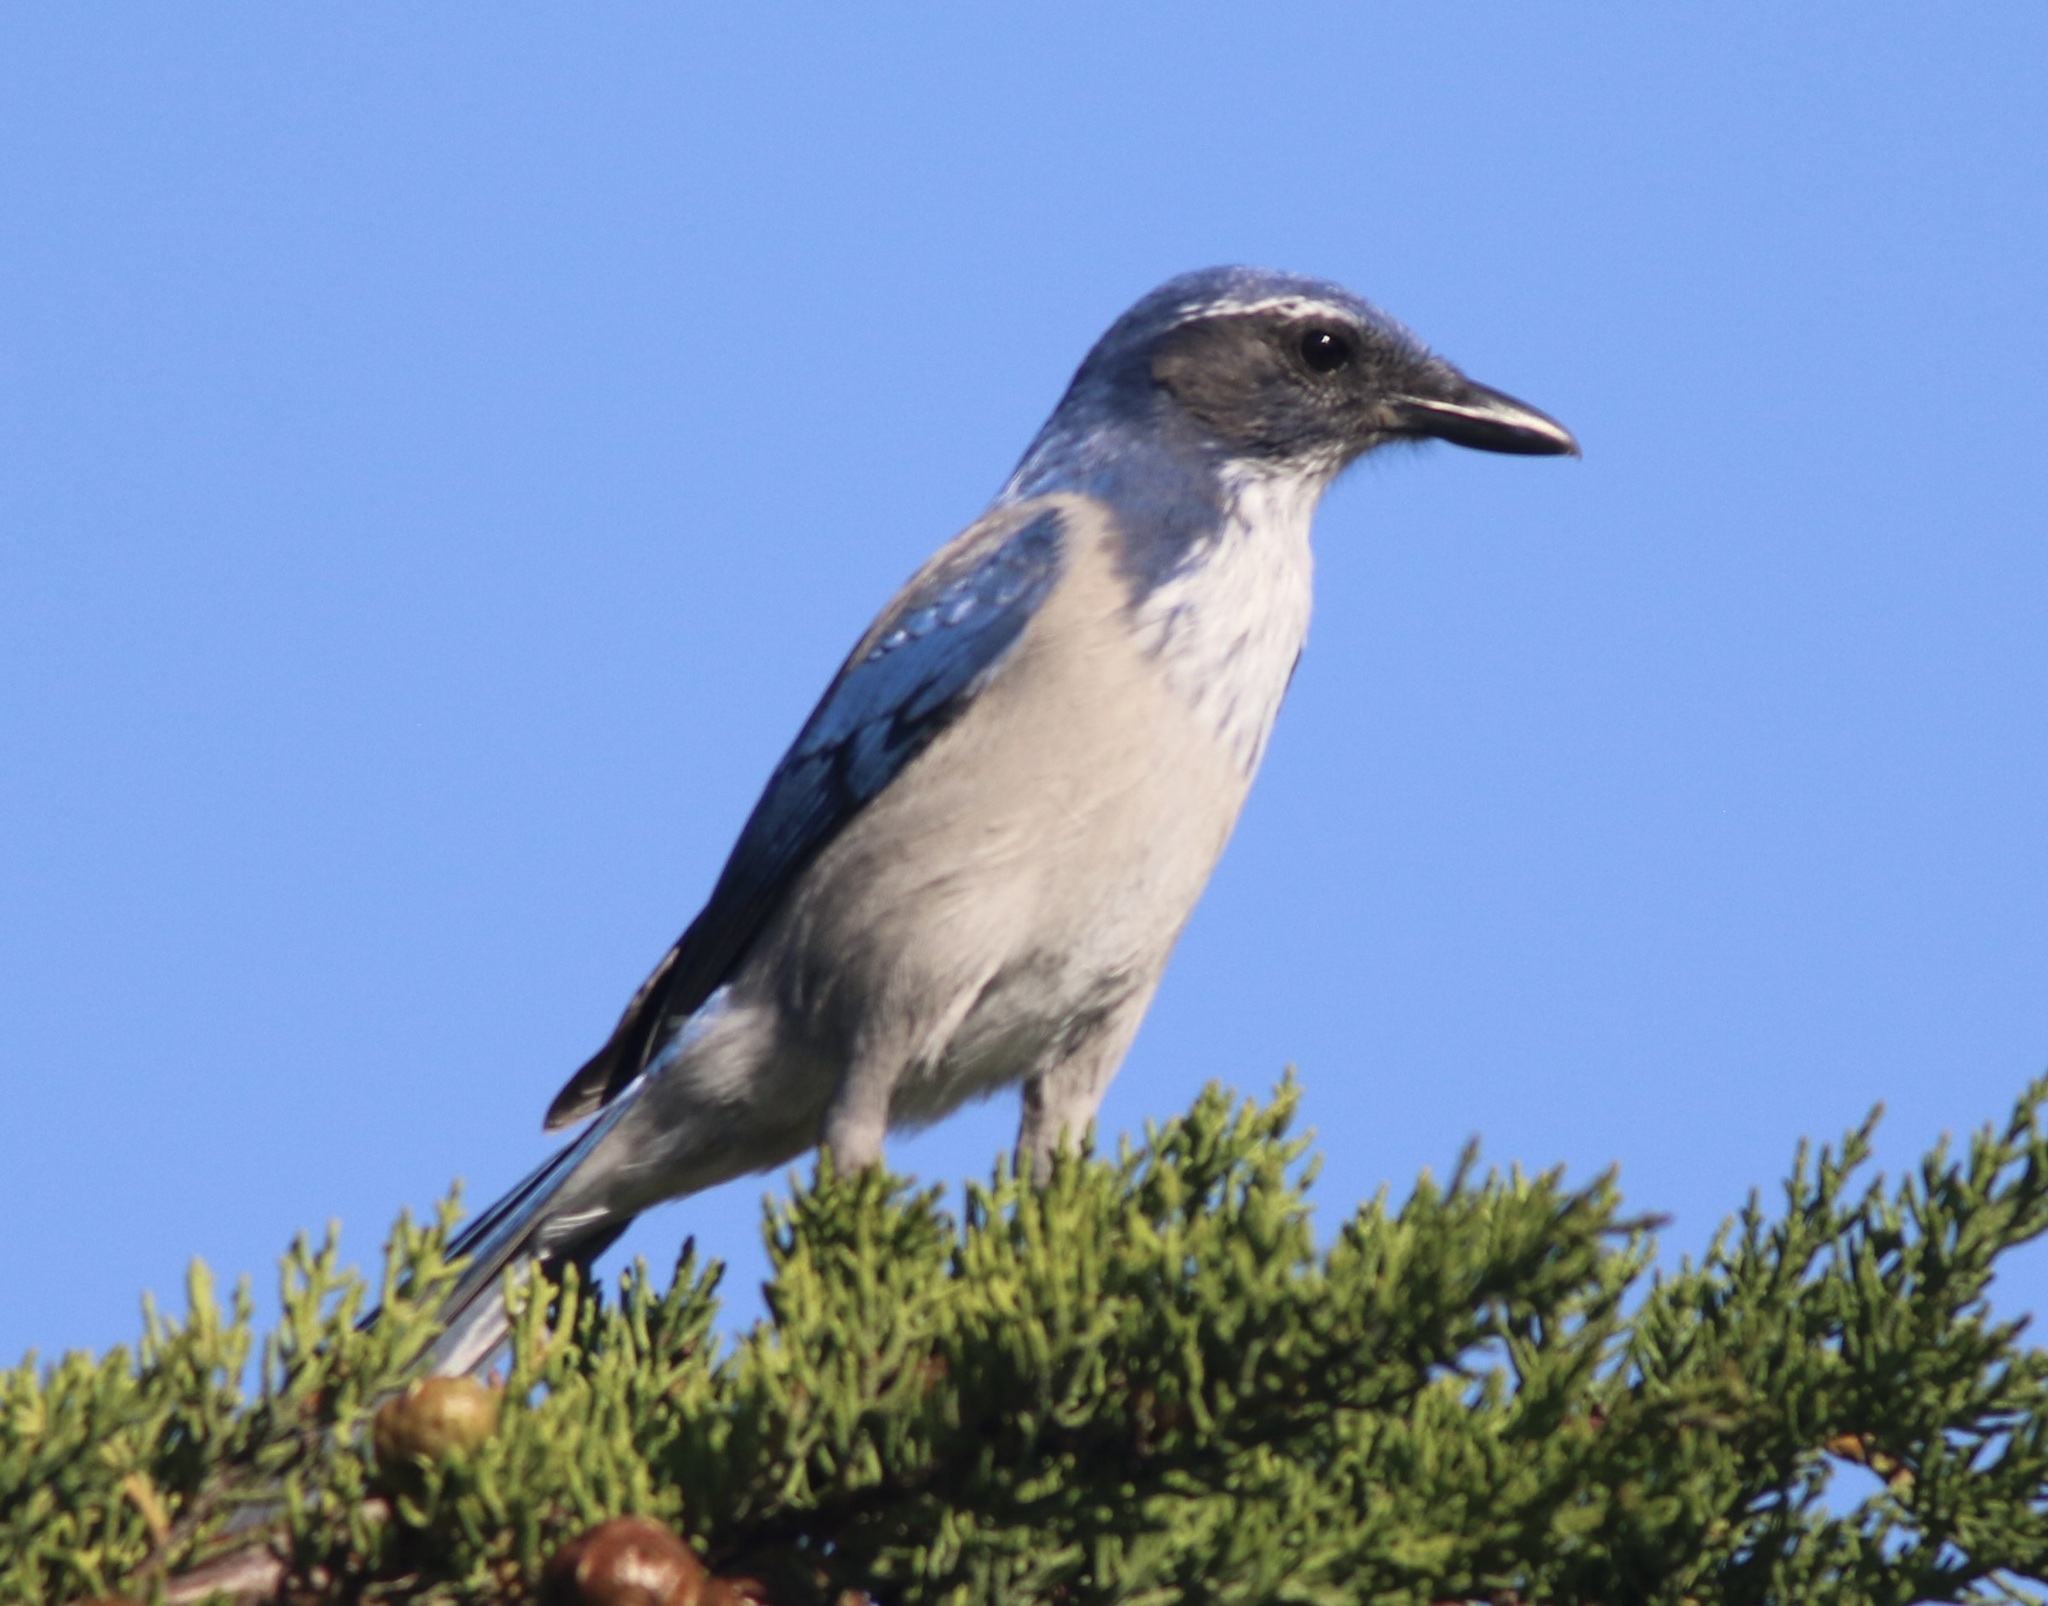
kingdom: Animalia
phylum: Chordata
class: Aves
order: Passeriformes
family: Corvidae
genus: Aphelocoma
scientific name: Aphelocoma californica
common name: California scrub-jay
